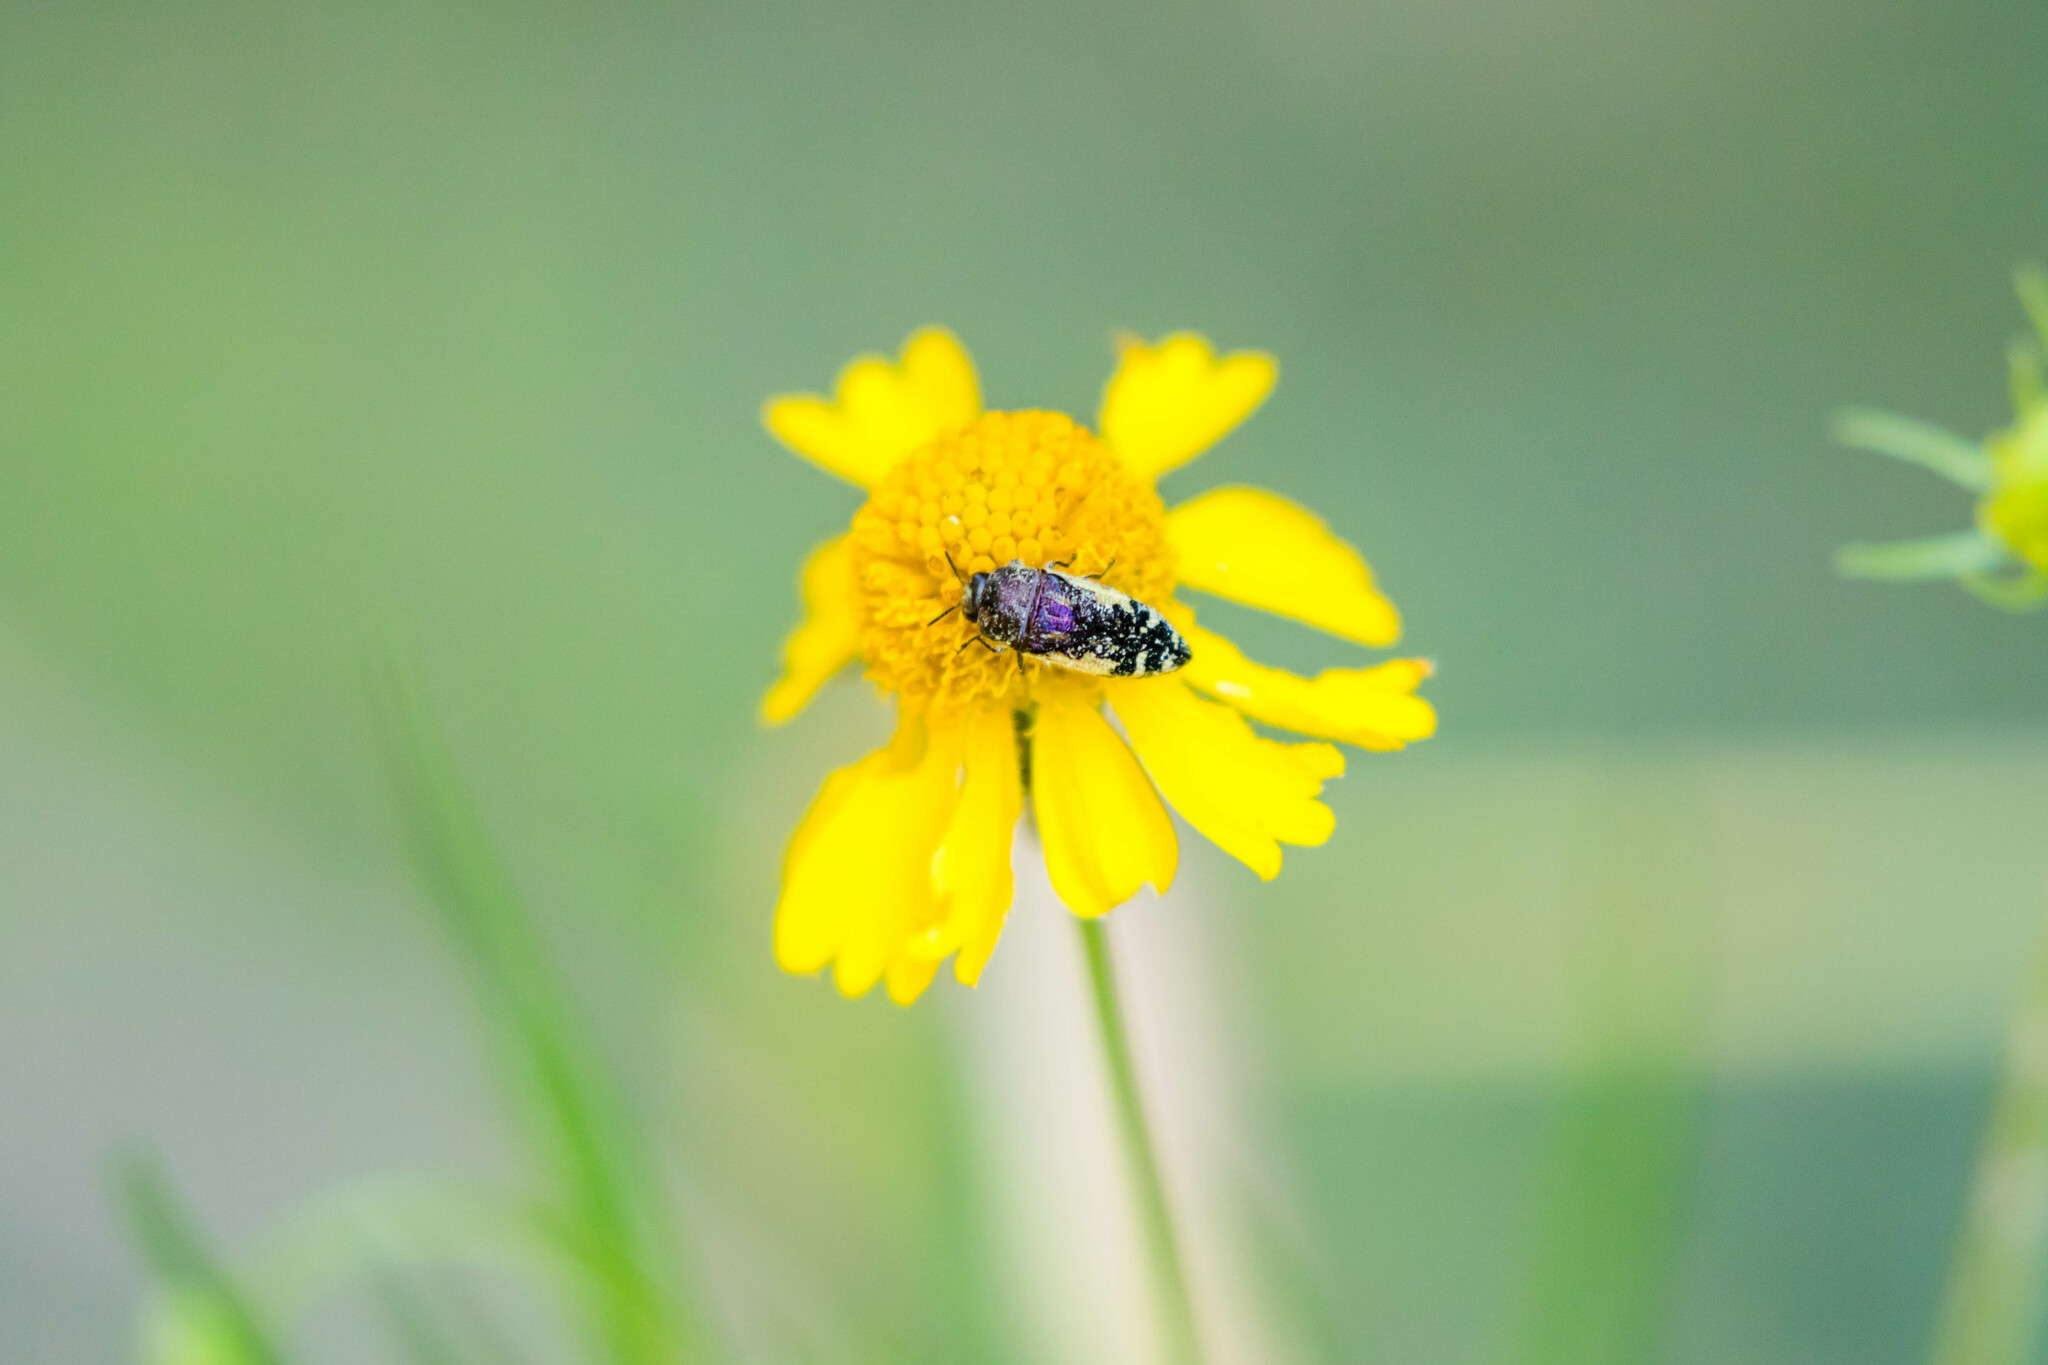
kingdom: Animalia
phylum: Arthropoda
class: Insecta
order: Coleoptera
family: Buprestidae
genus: Acmaeodera
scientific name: Acmaeodera pulchella
